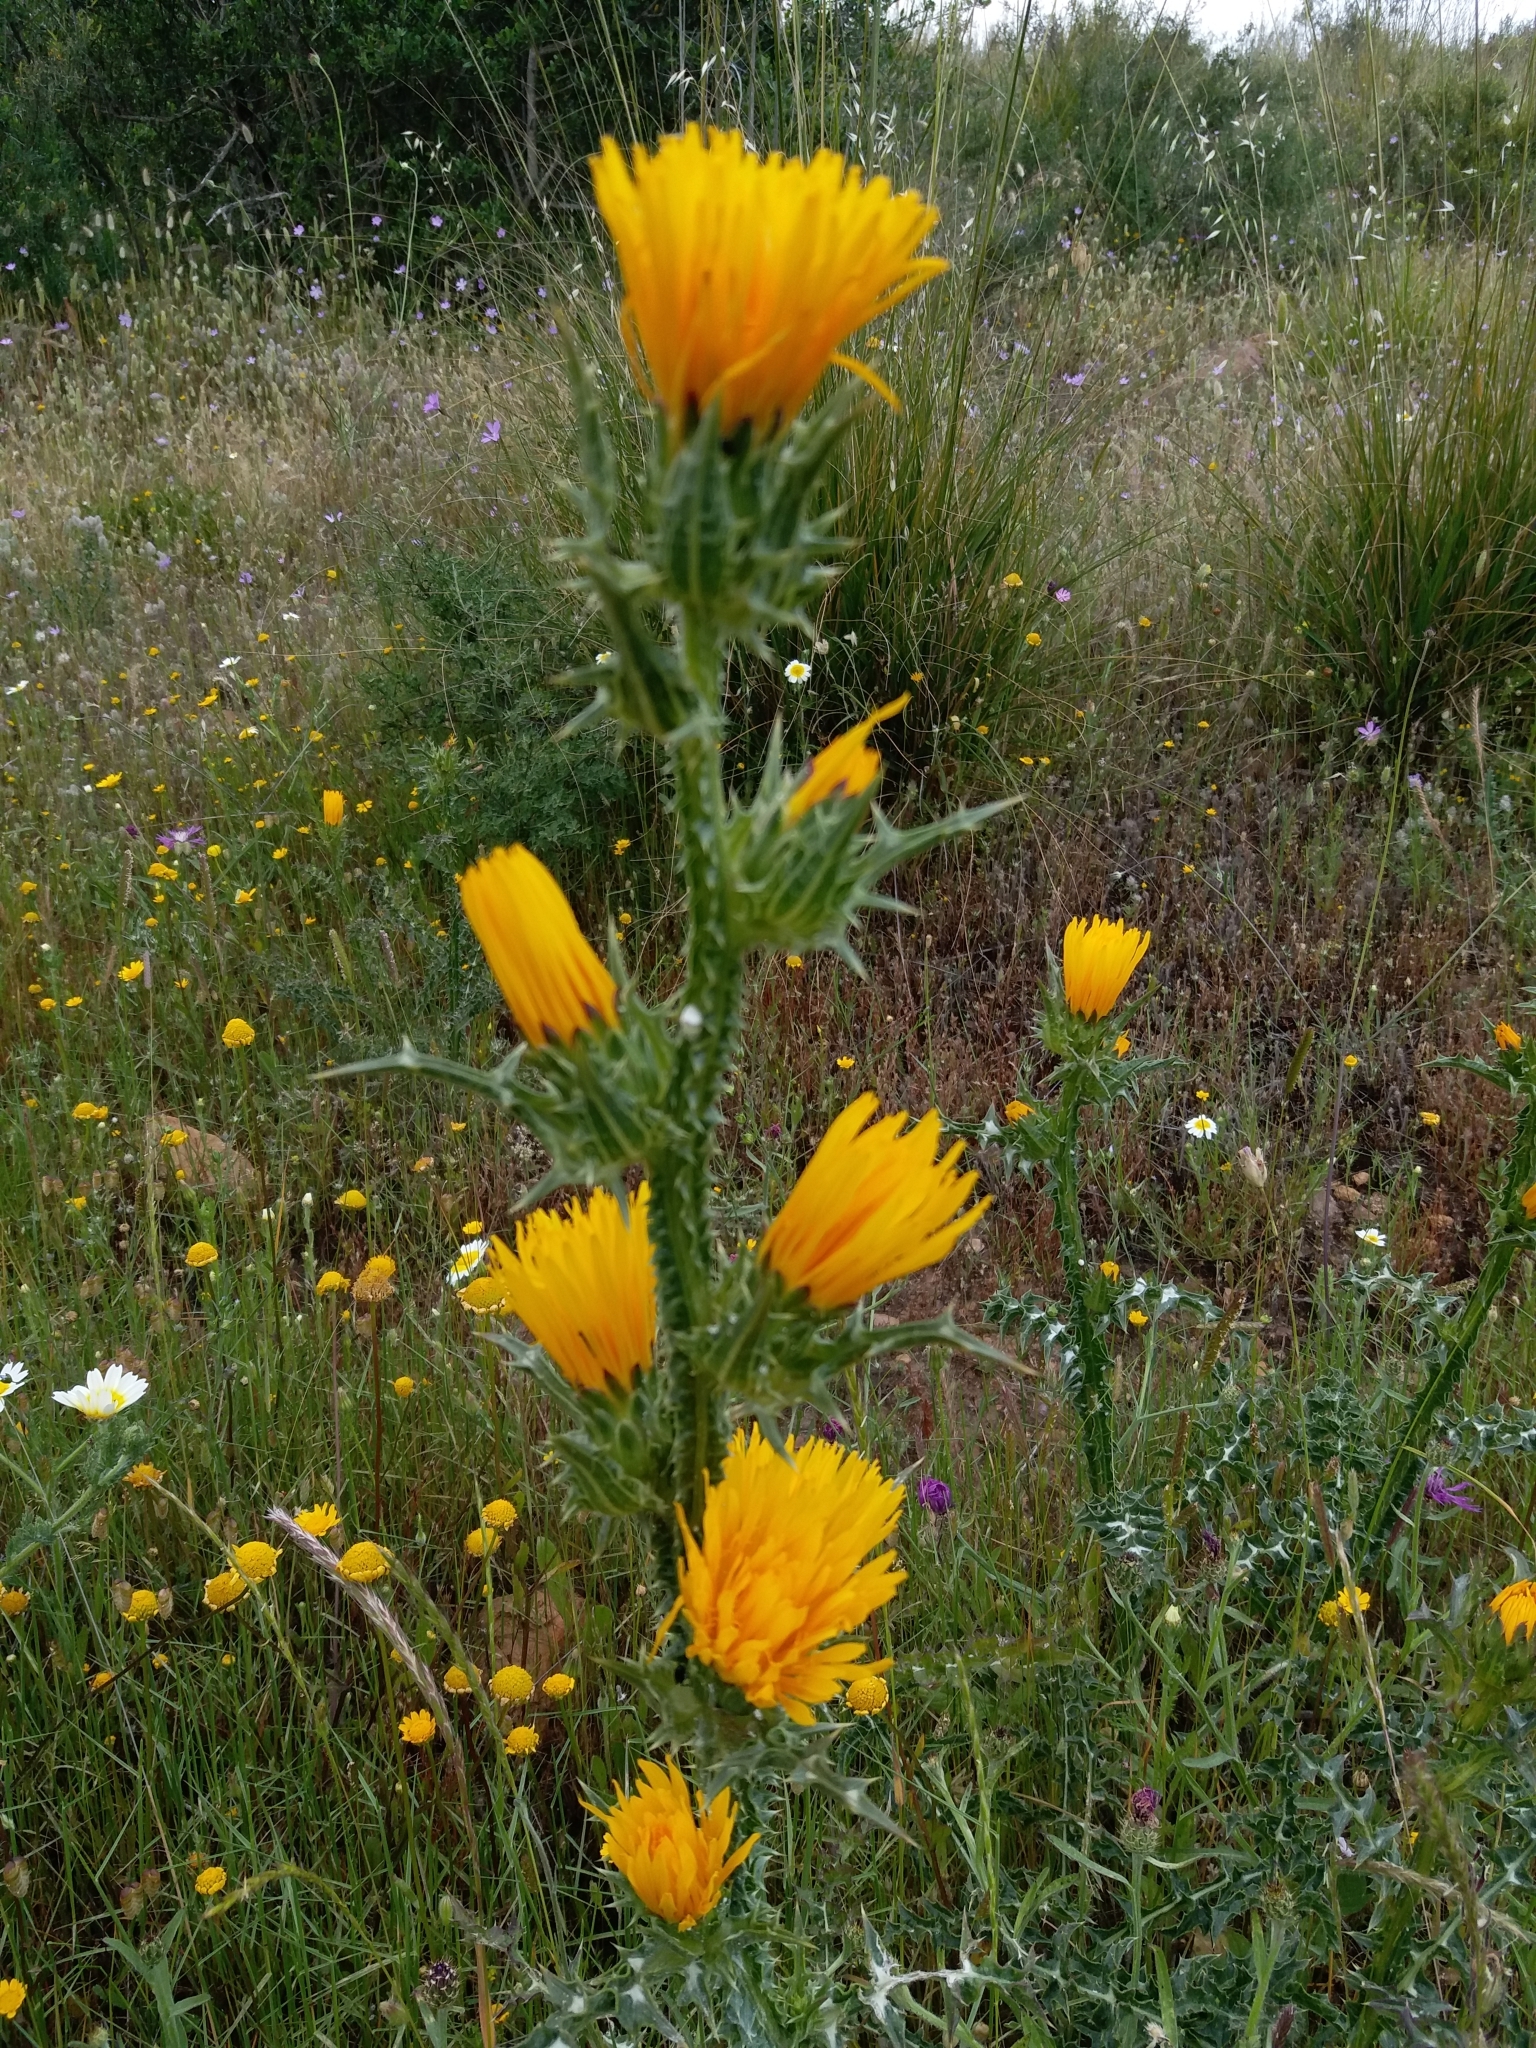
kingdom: Plantae
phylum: Tracheophyta
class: Magnoliopsida
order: Asterales
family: Asteraceae
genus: Scolymus
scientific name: Scolymus grandiflorus
